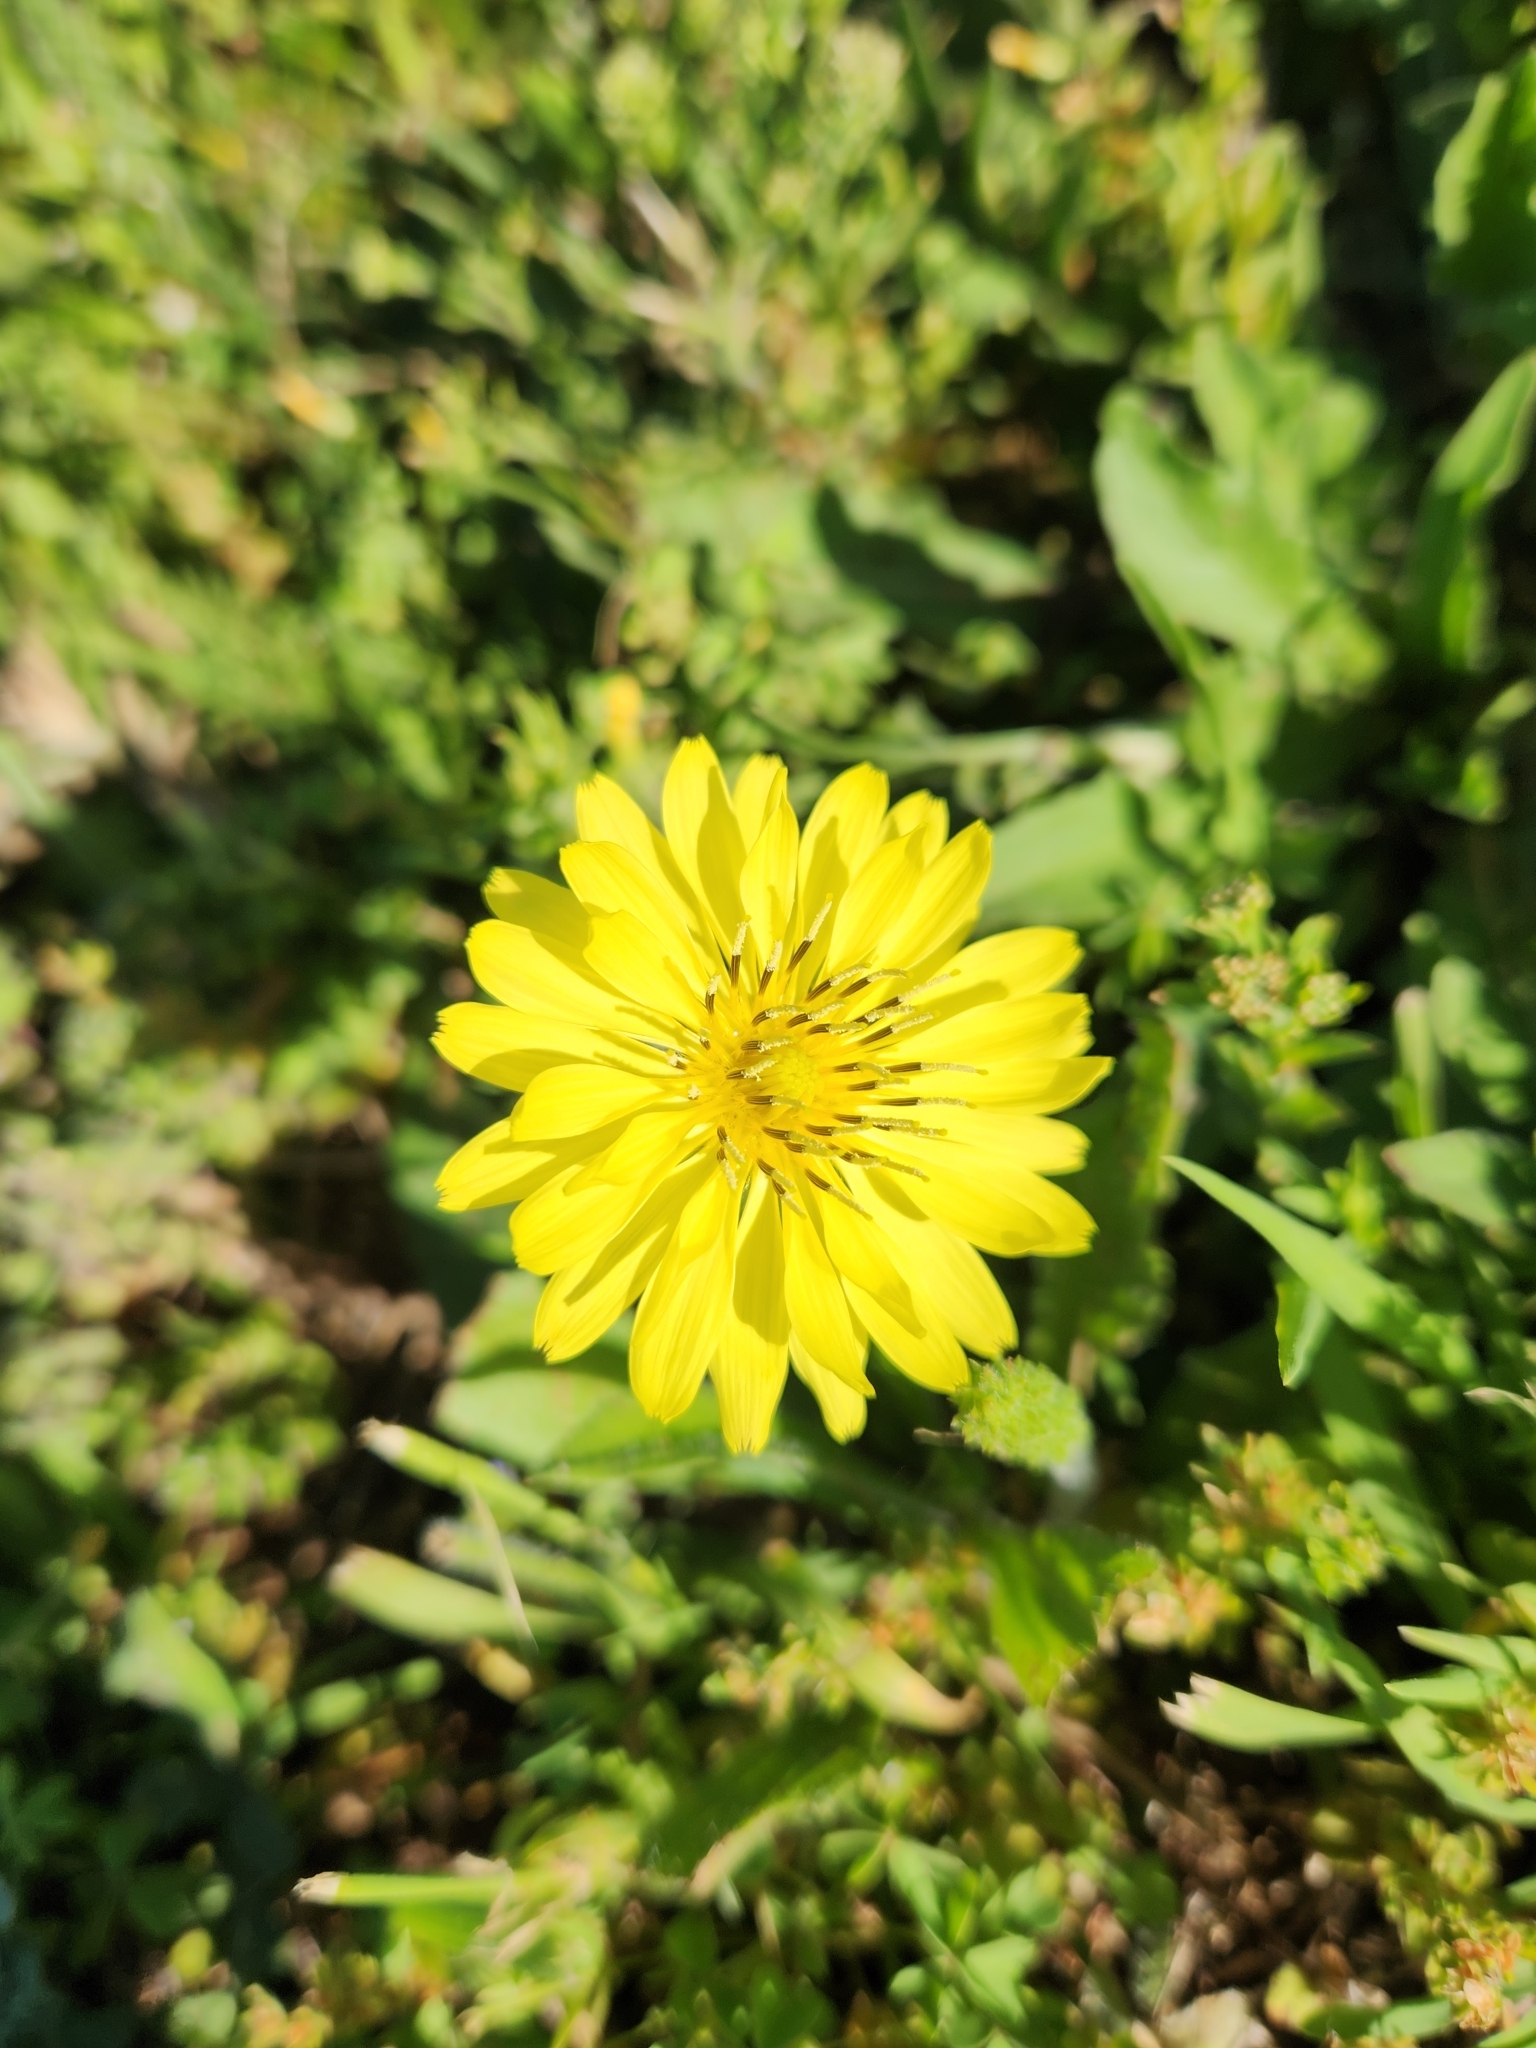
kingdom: Plantae
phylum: Tracheophyta
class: Magnoliopsida
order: Asterales
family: Asteraceae
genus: Pyrrhopappus
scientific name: Pyrrhopappus pauciflorus
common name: Texas false dandelion
